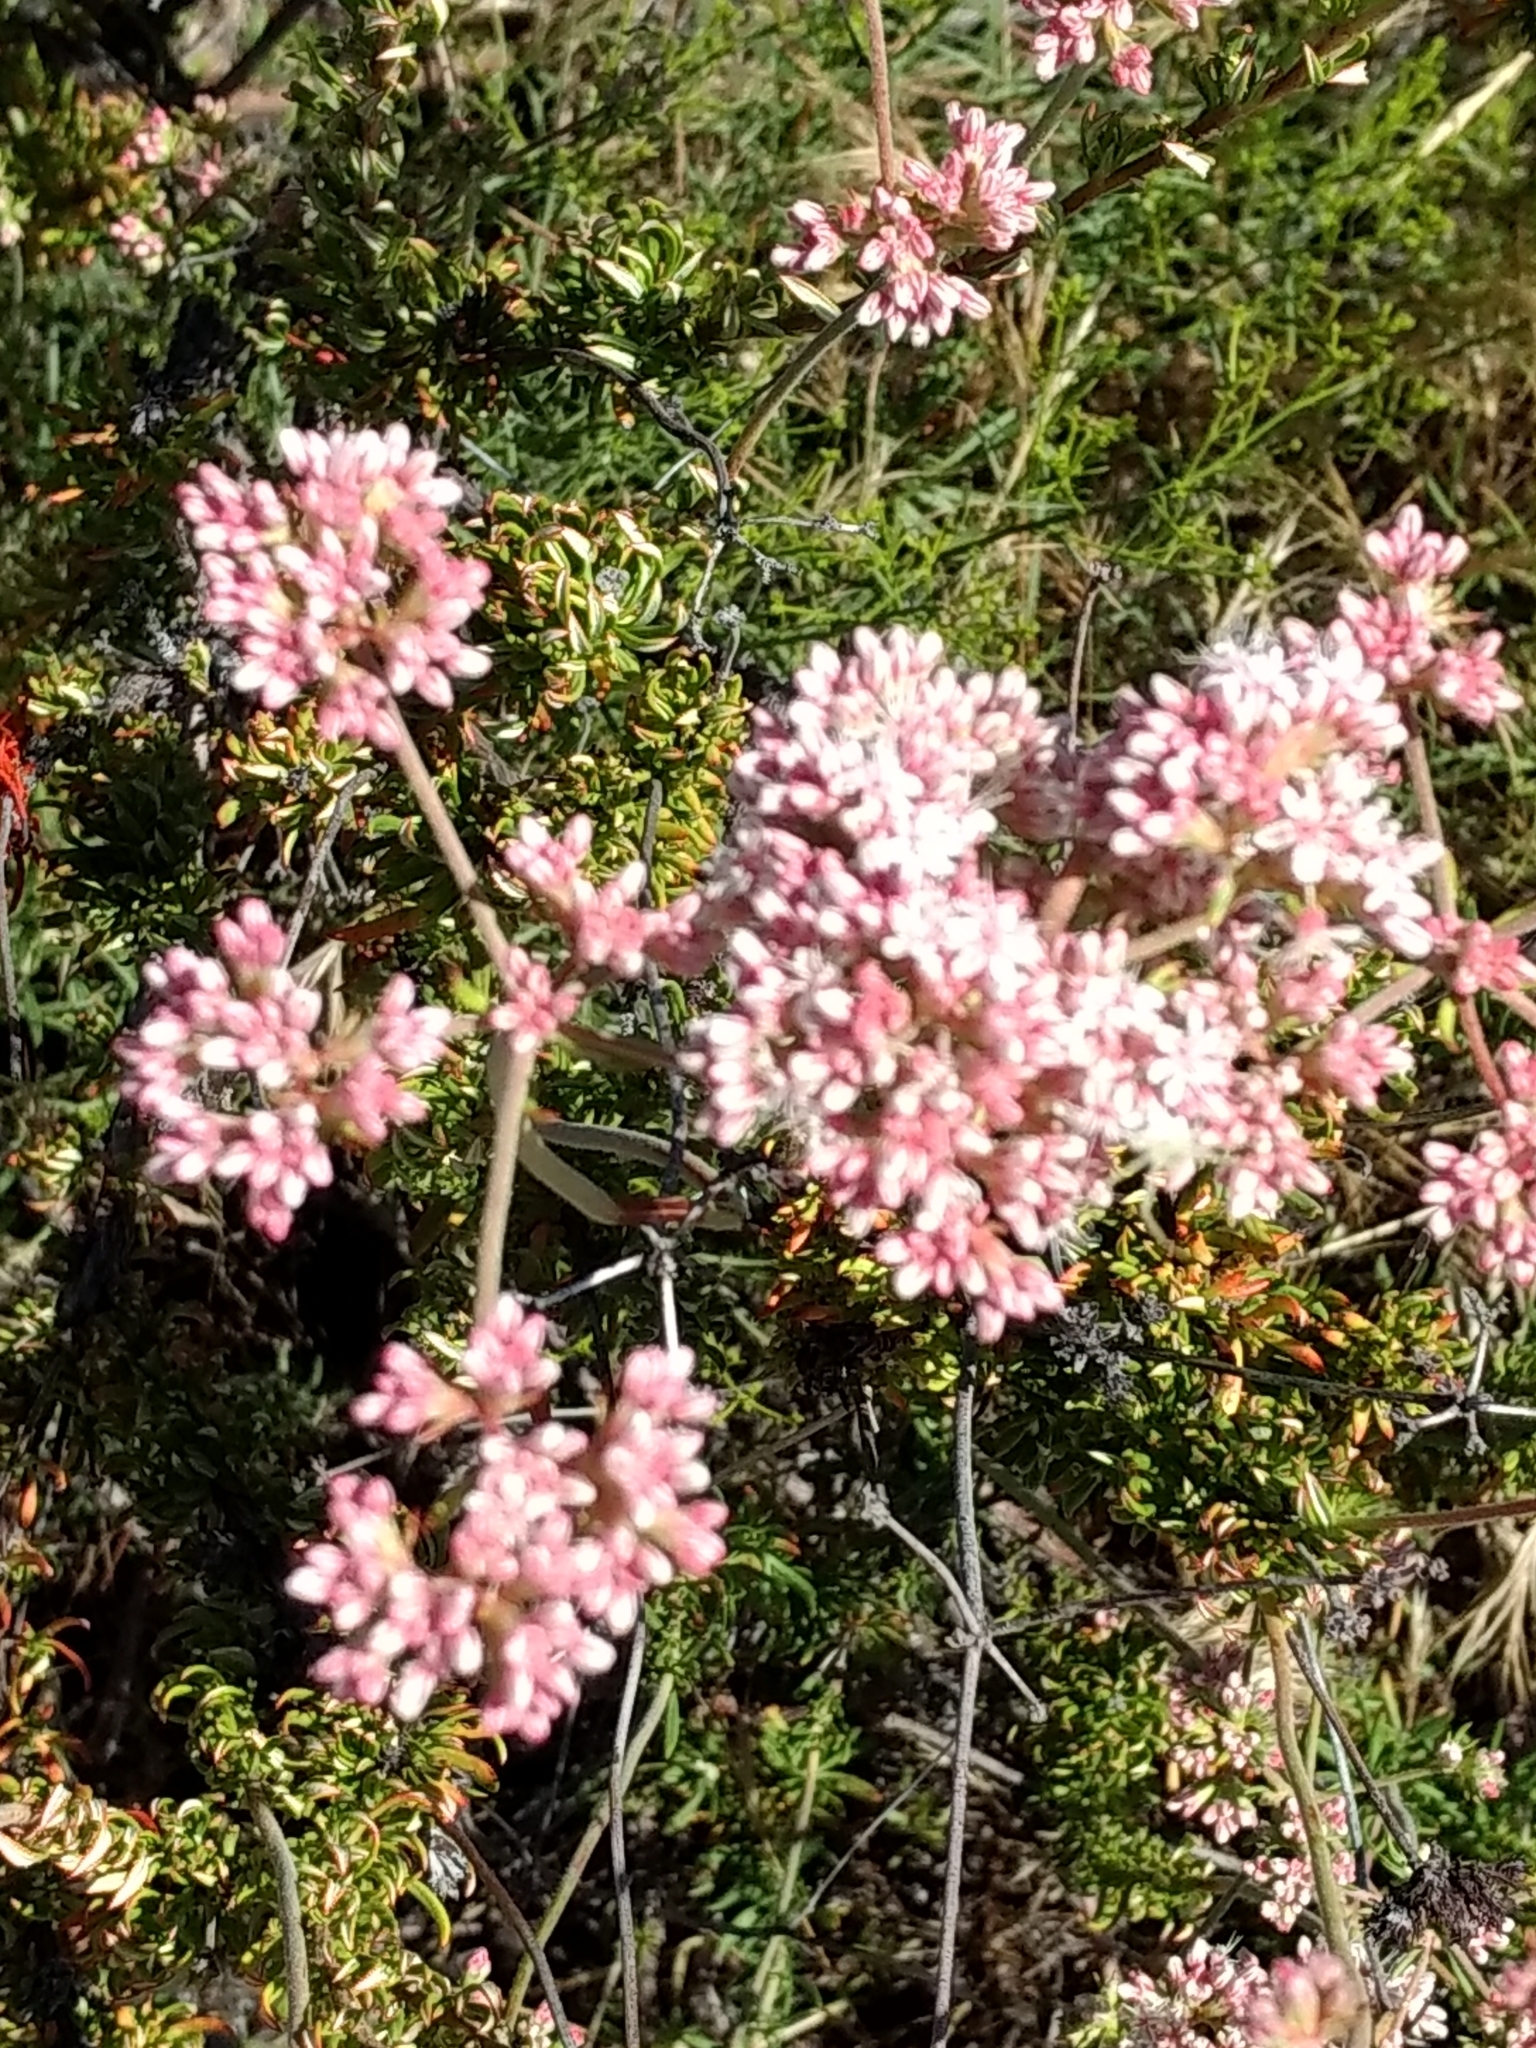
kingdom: Plantae
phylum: Tracheophyta
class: Magnoliopsida
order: Caryophyllales
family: Polygonaceae
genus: Eriogonum
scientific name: Eriogonum fasciculatum
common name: California wild buckwheat
